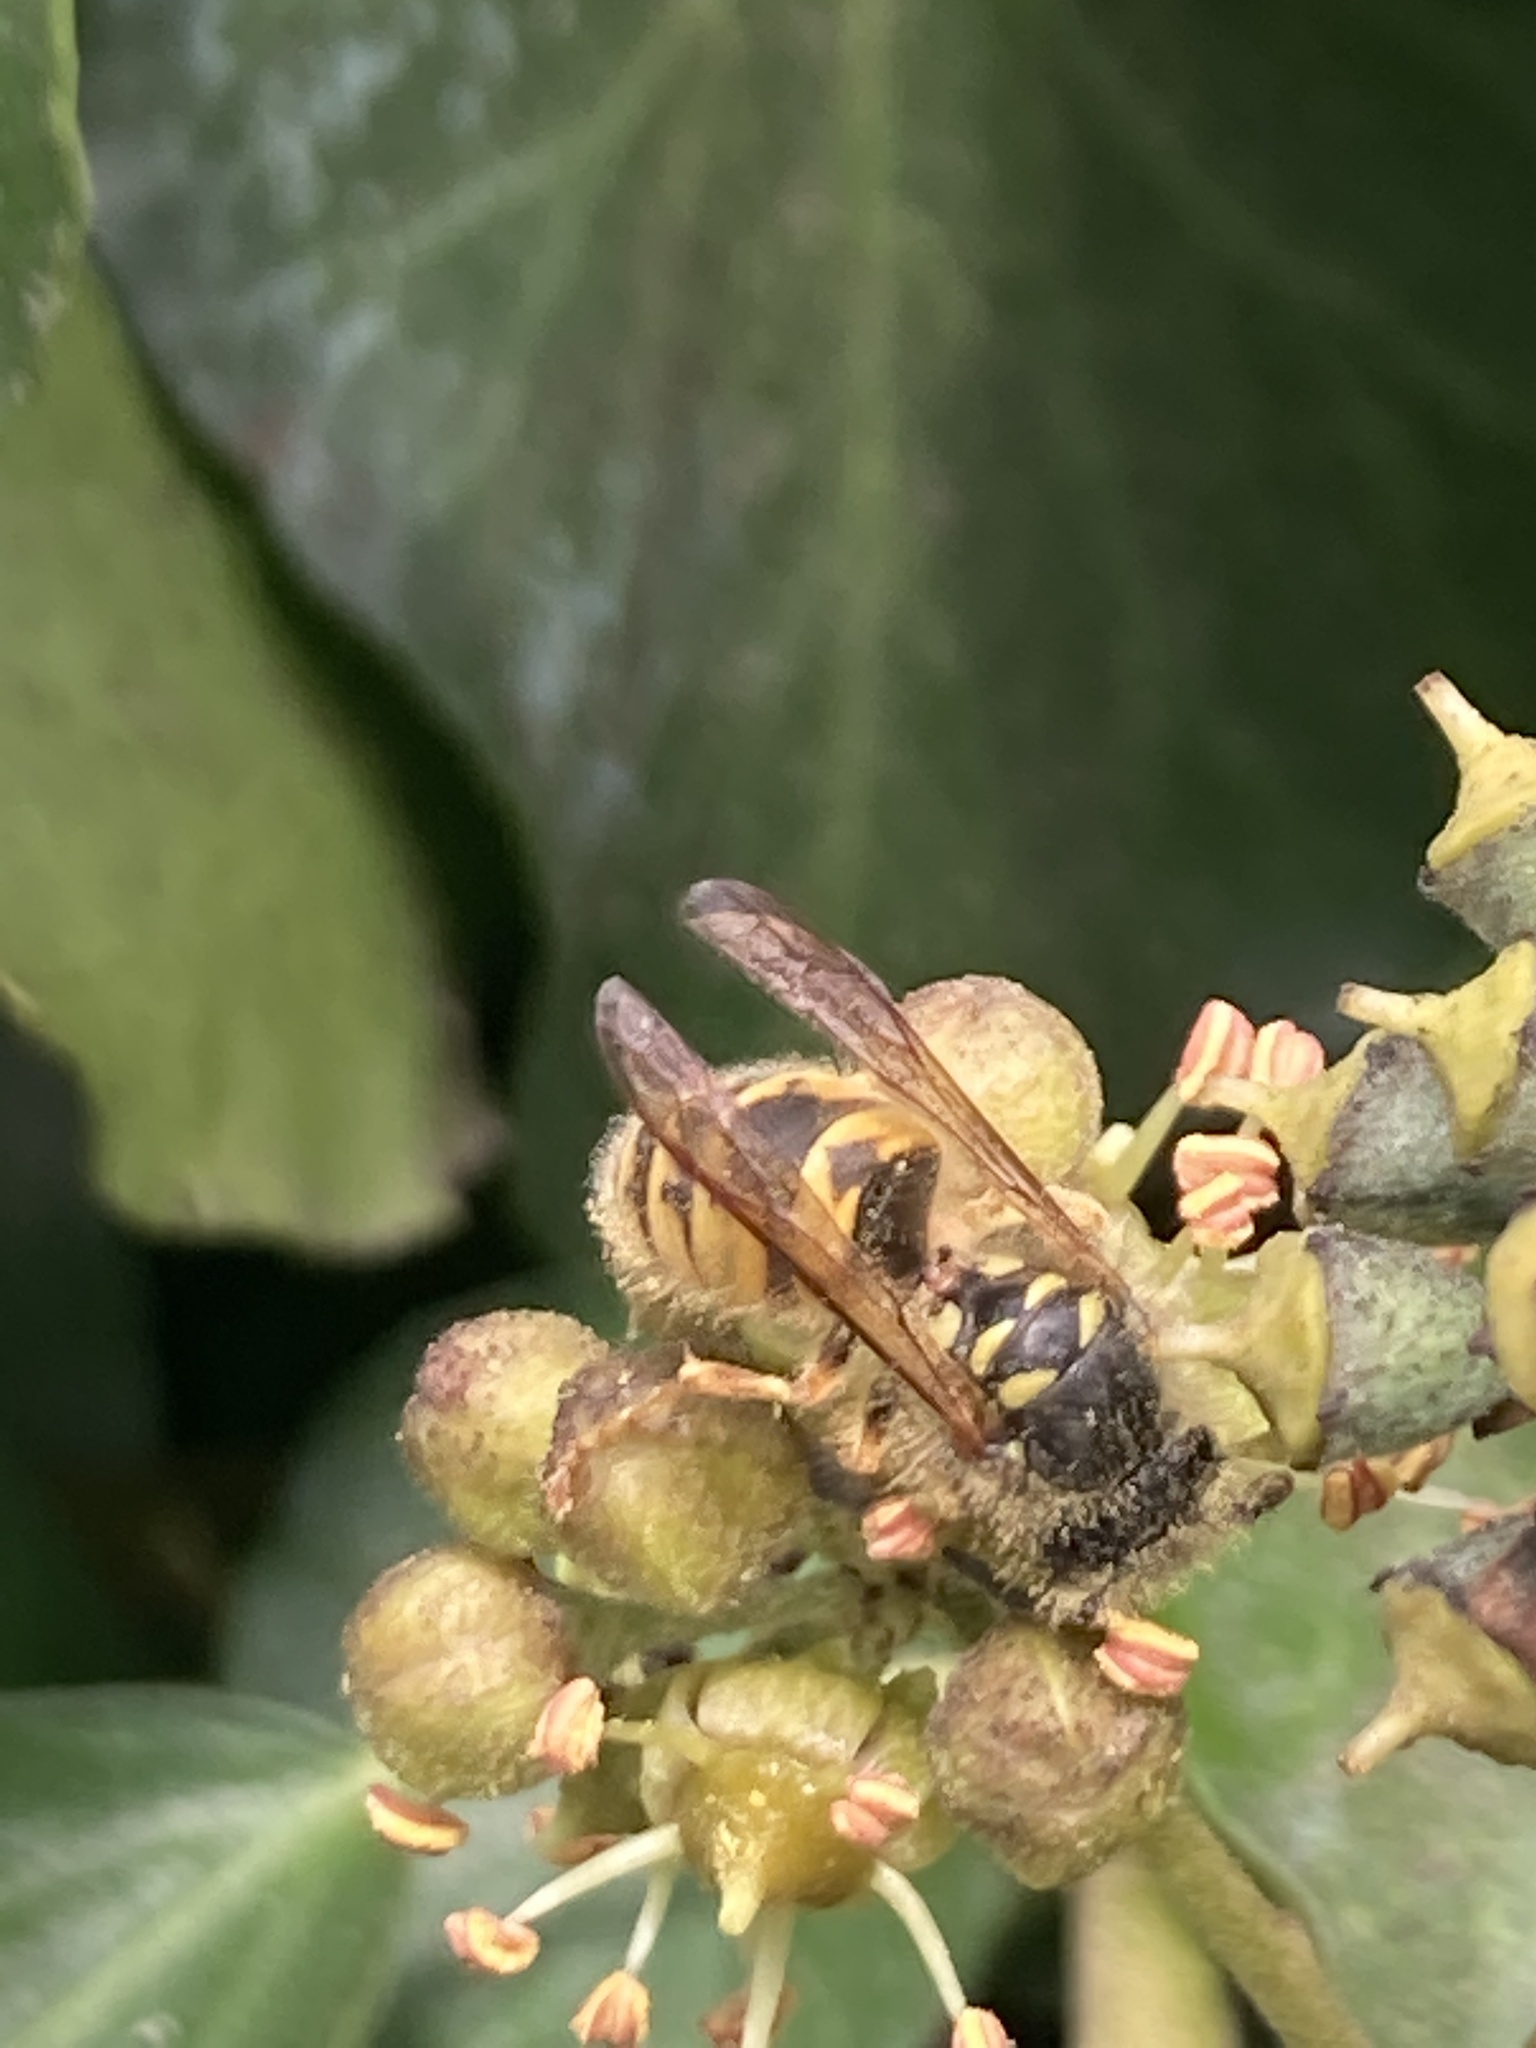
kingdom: Animalia
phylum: Arthropoda
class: Insecta
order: Hymenoptera
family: Vespidae
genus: Vespula
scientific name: Vespula vulgaris
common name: Common wasp
